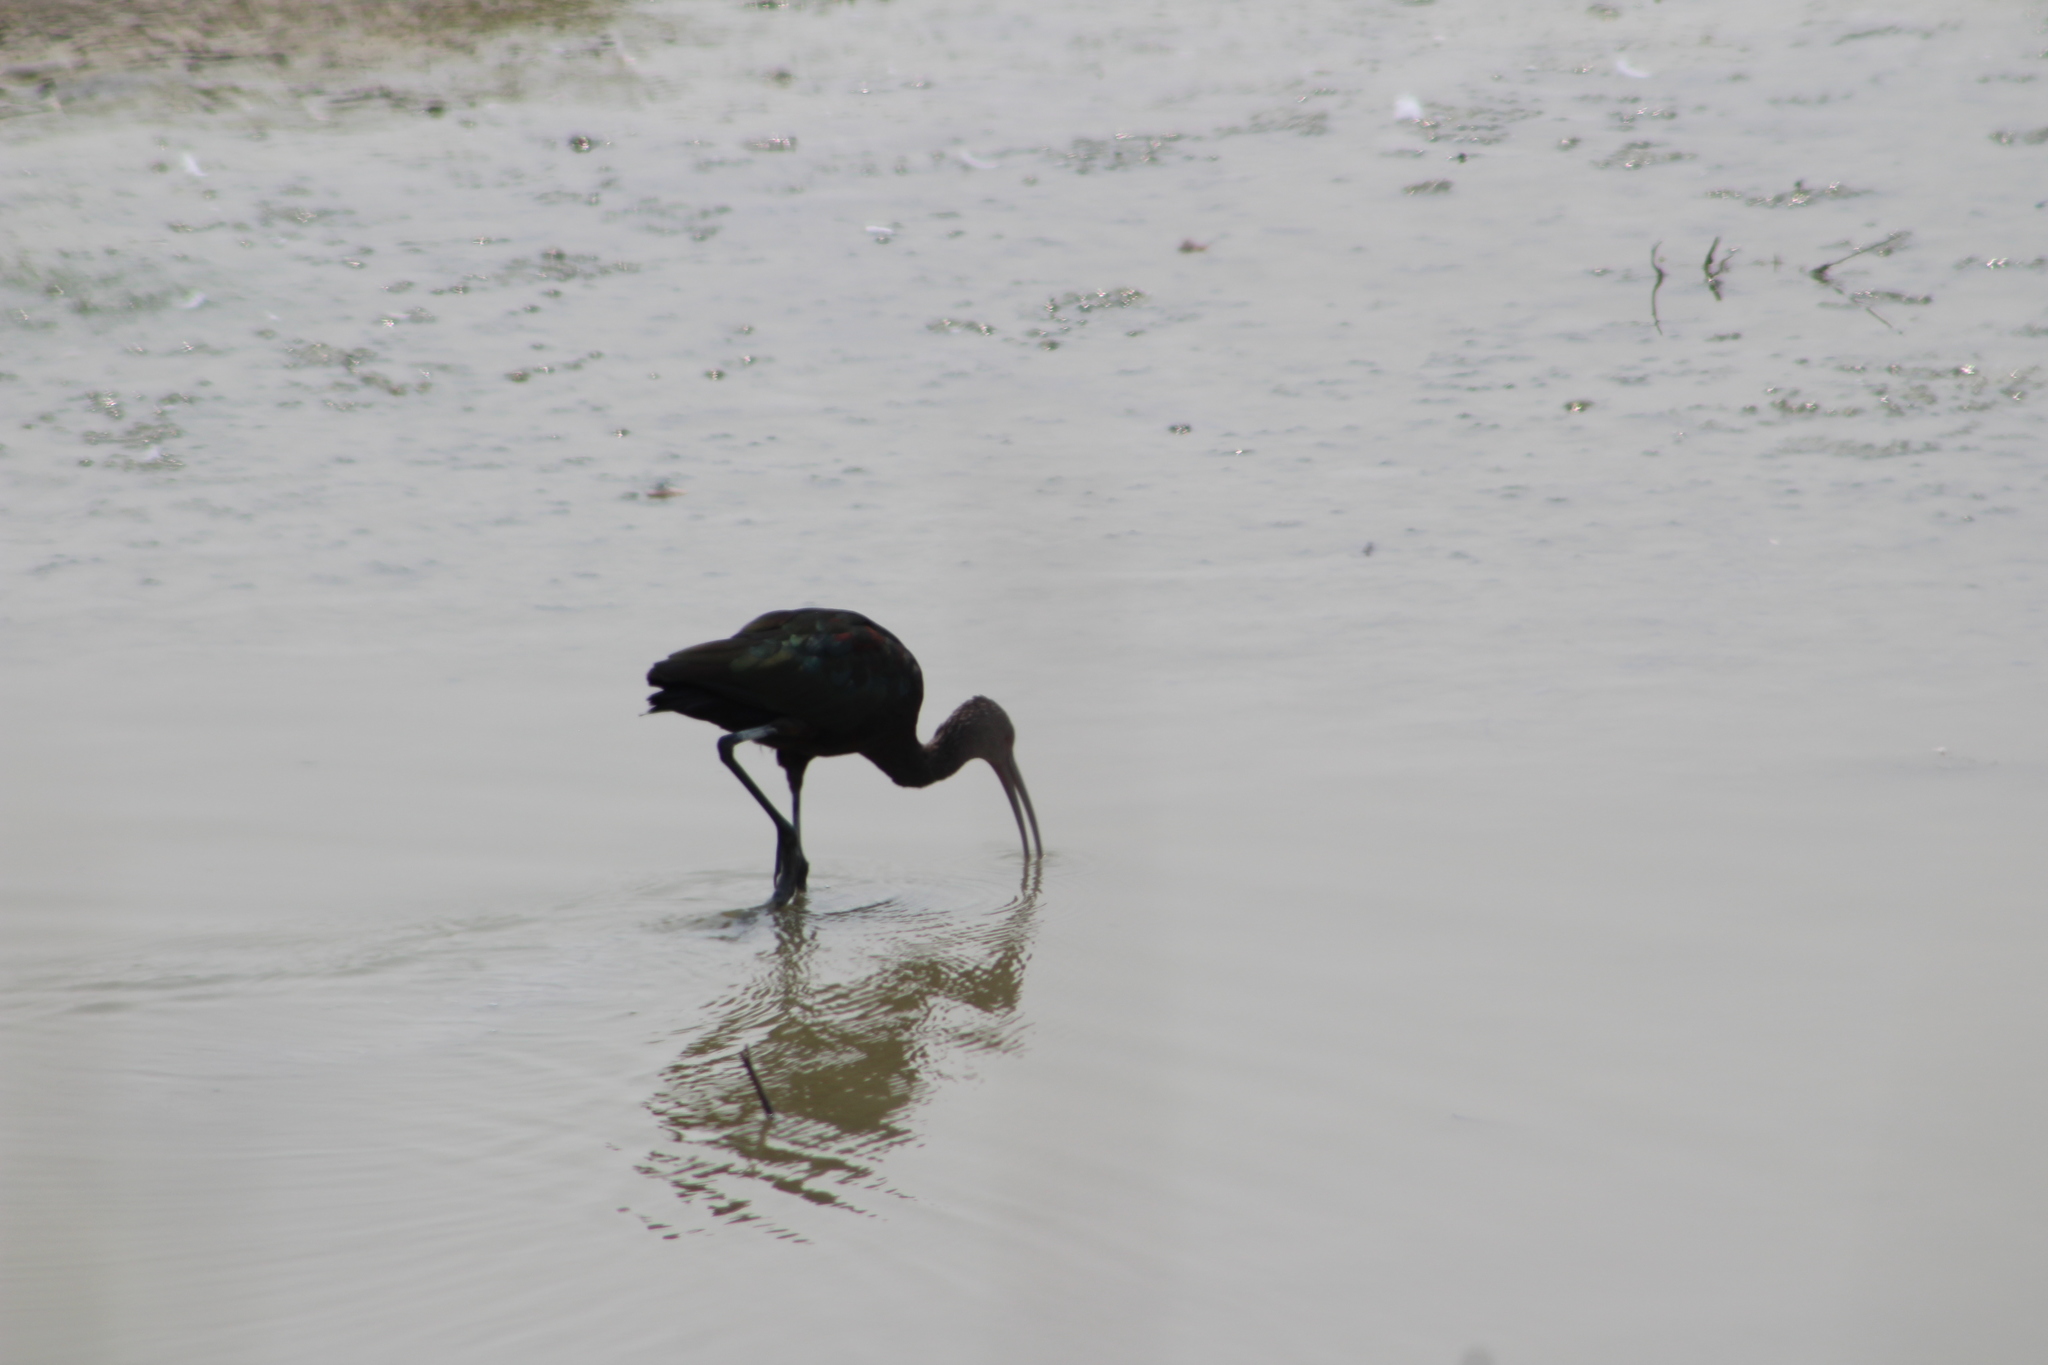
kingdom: Animalia
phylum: Chordata
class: Aves
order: Pelecaniformes
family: Threskiornithidae
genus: Plegadis
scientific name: Plegadis chihi
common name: White-faced ibis
